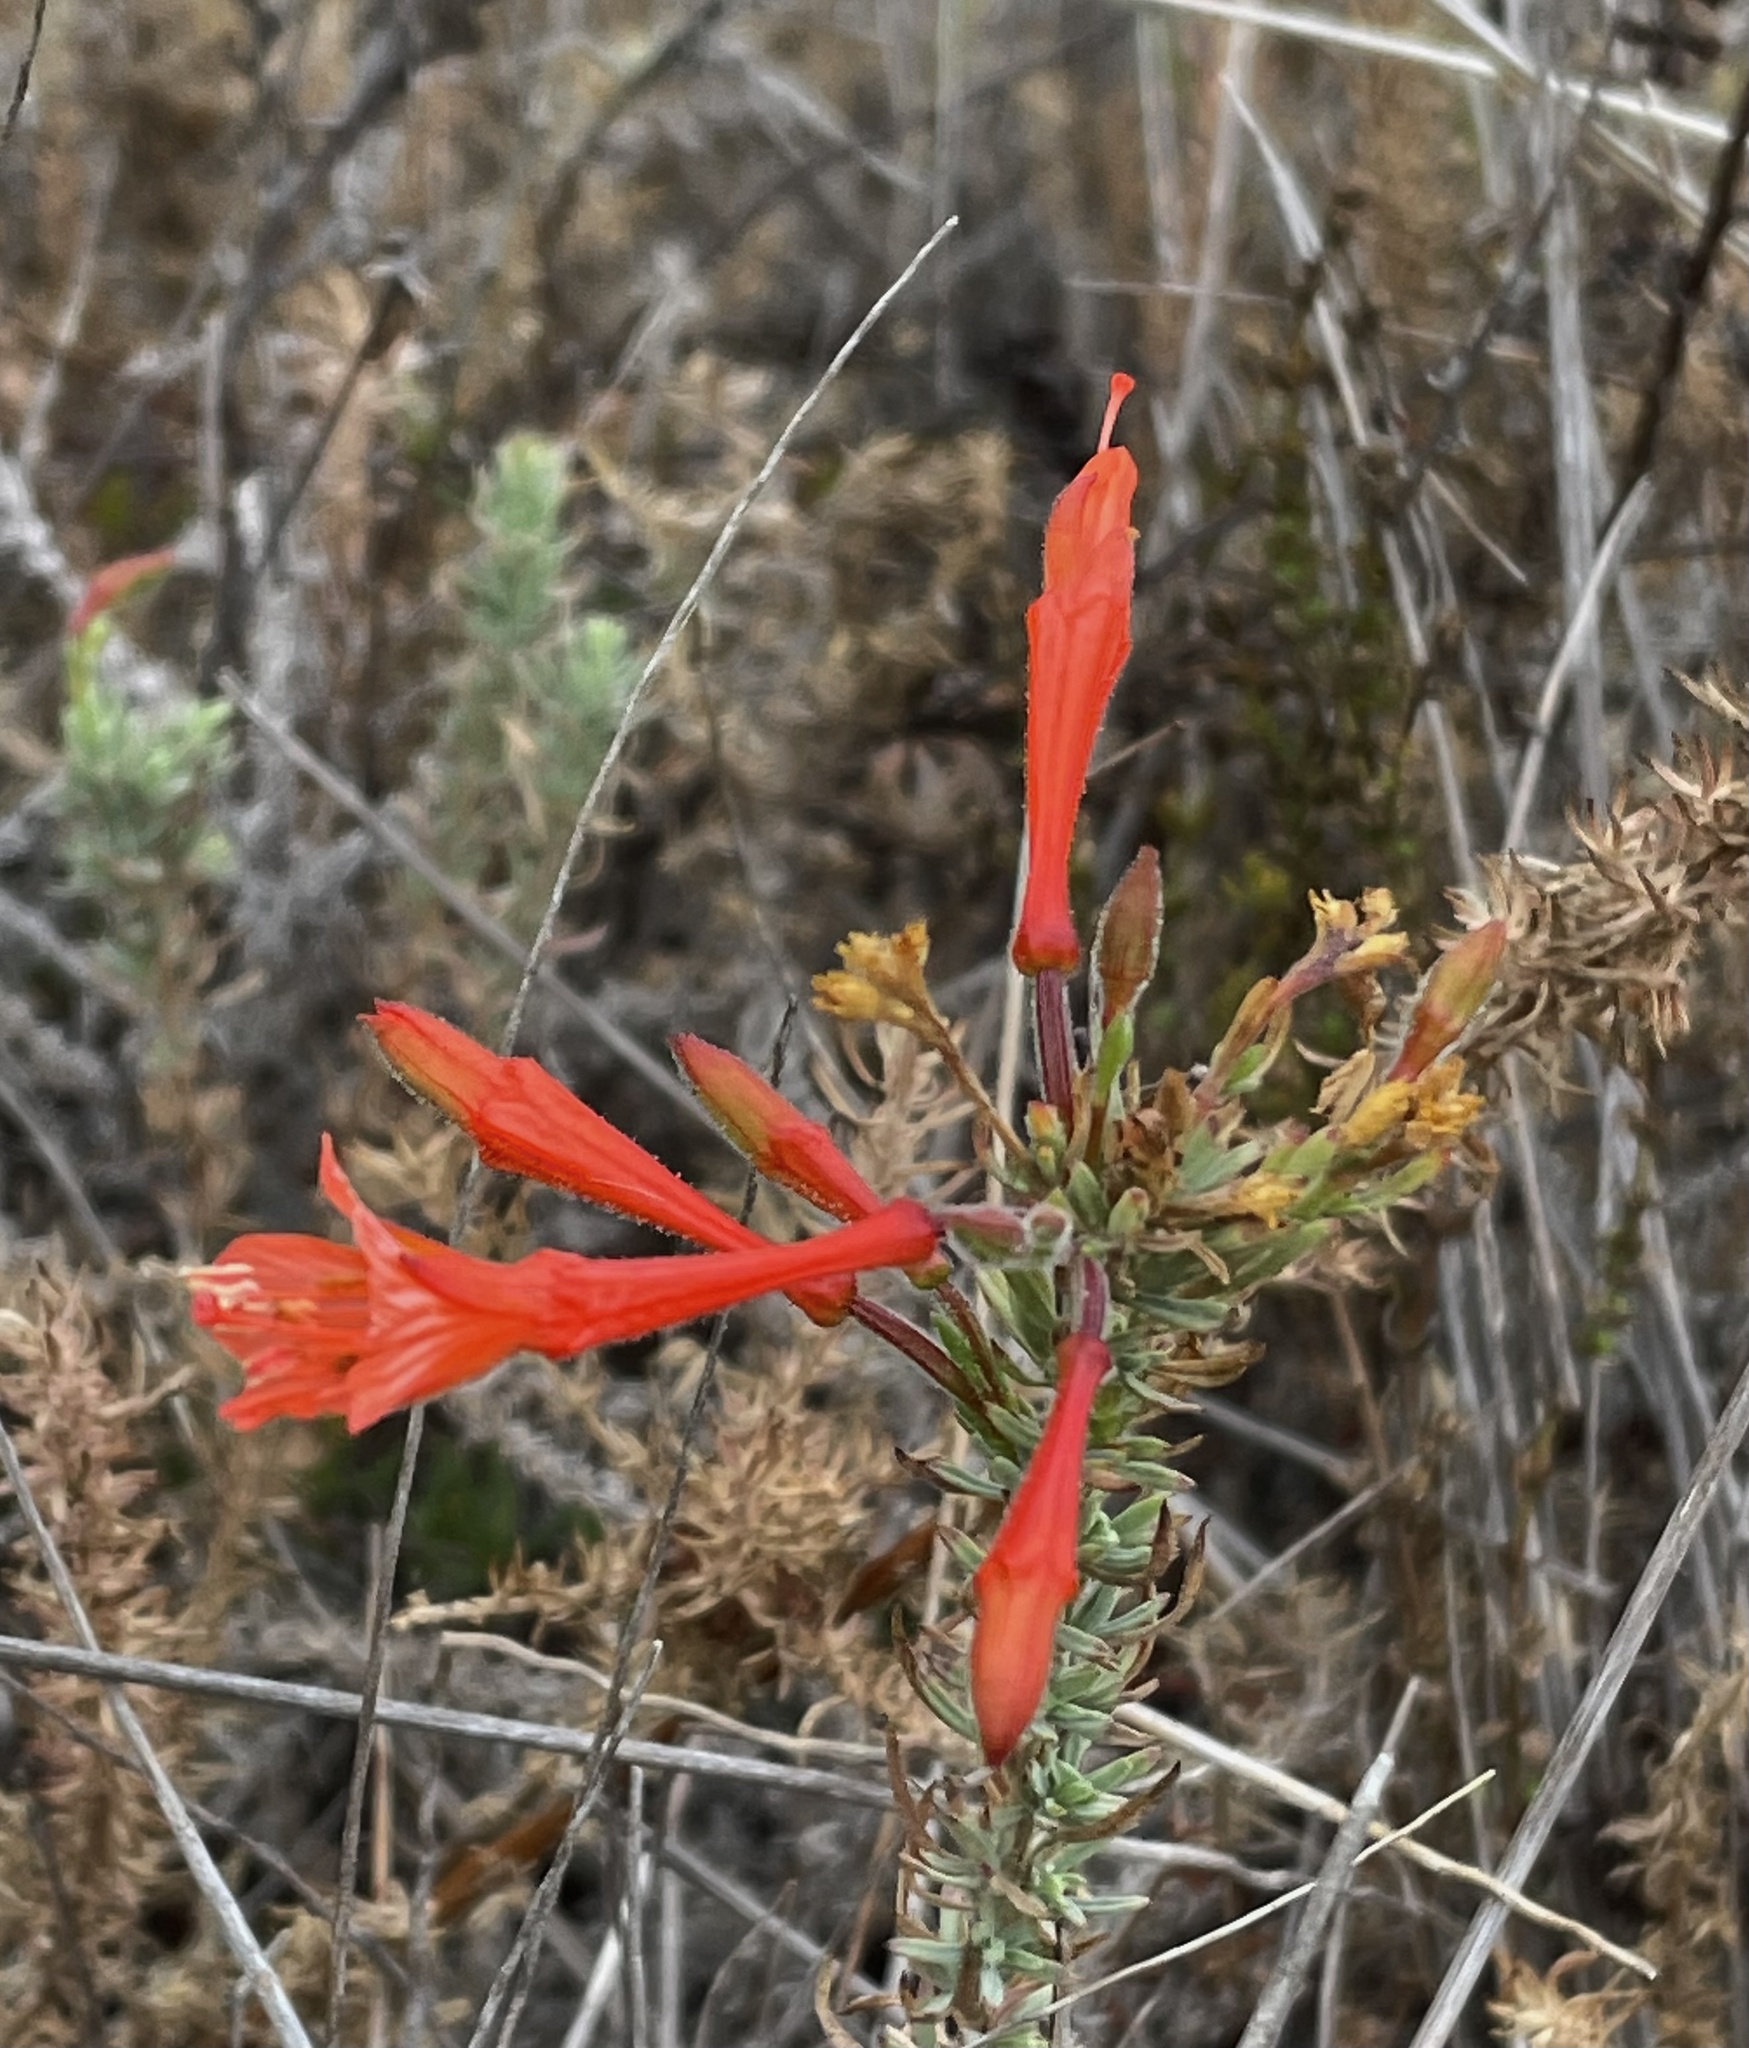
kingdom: Plantae
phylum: Tracheophyta
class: Magnoliopsida
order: Myrtales
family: Onagraceae
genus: Epilobium
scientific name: Epilobium canum
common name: California-fuchsia
